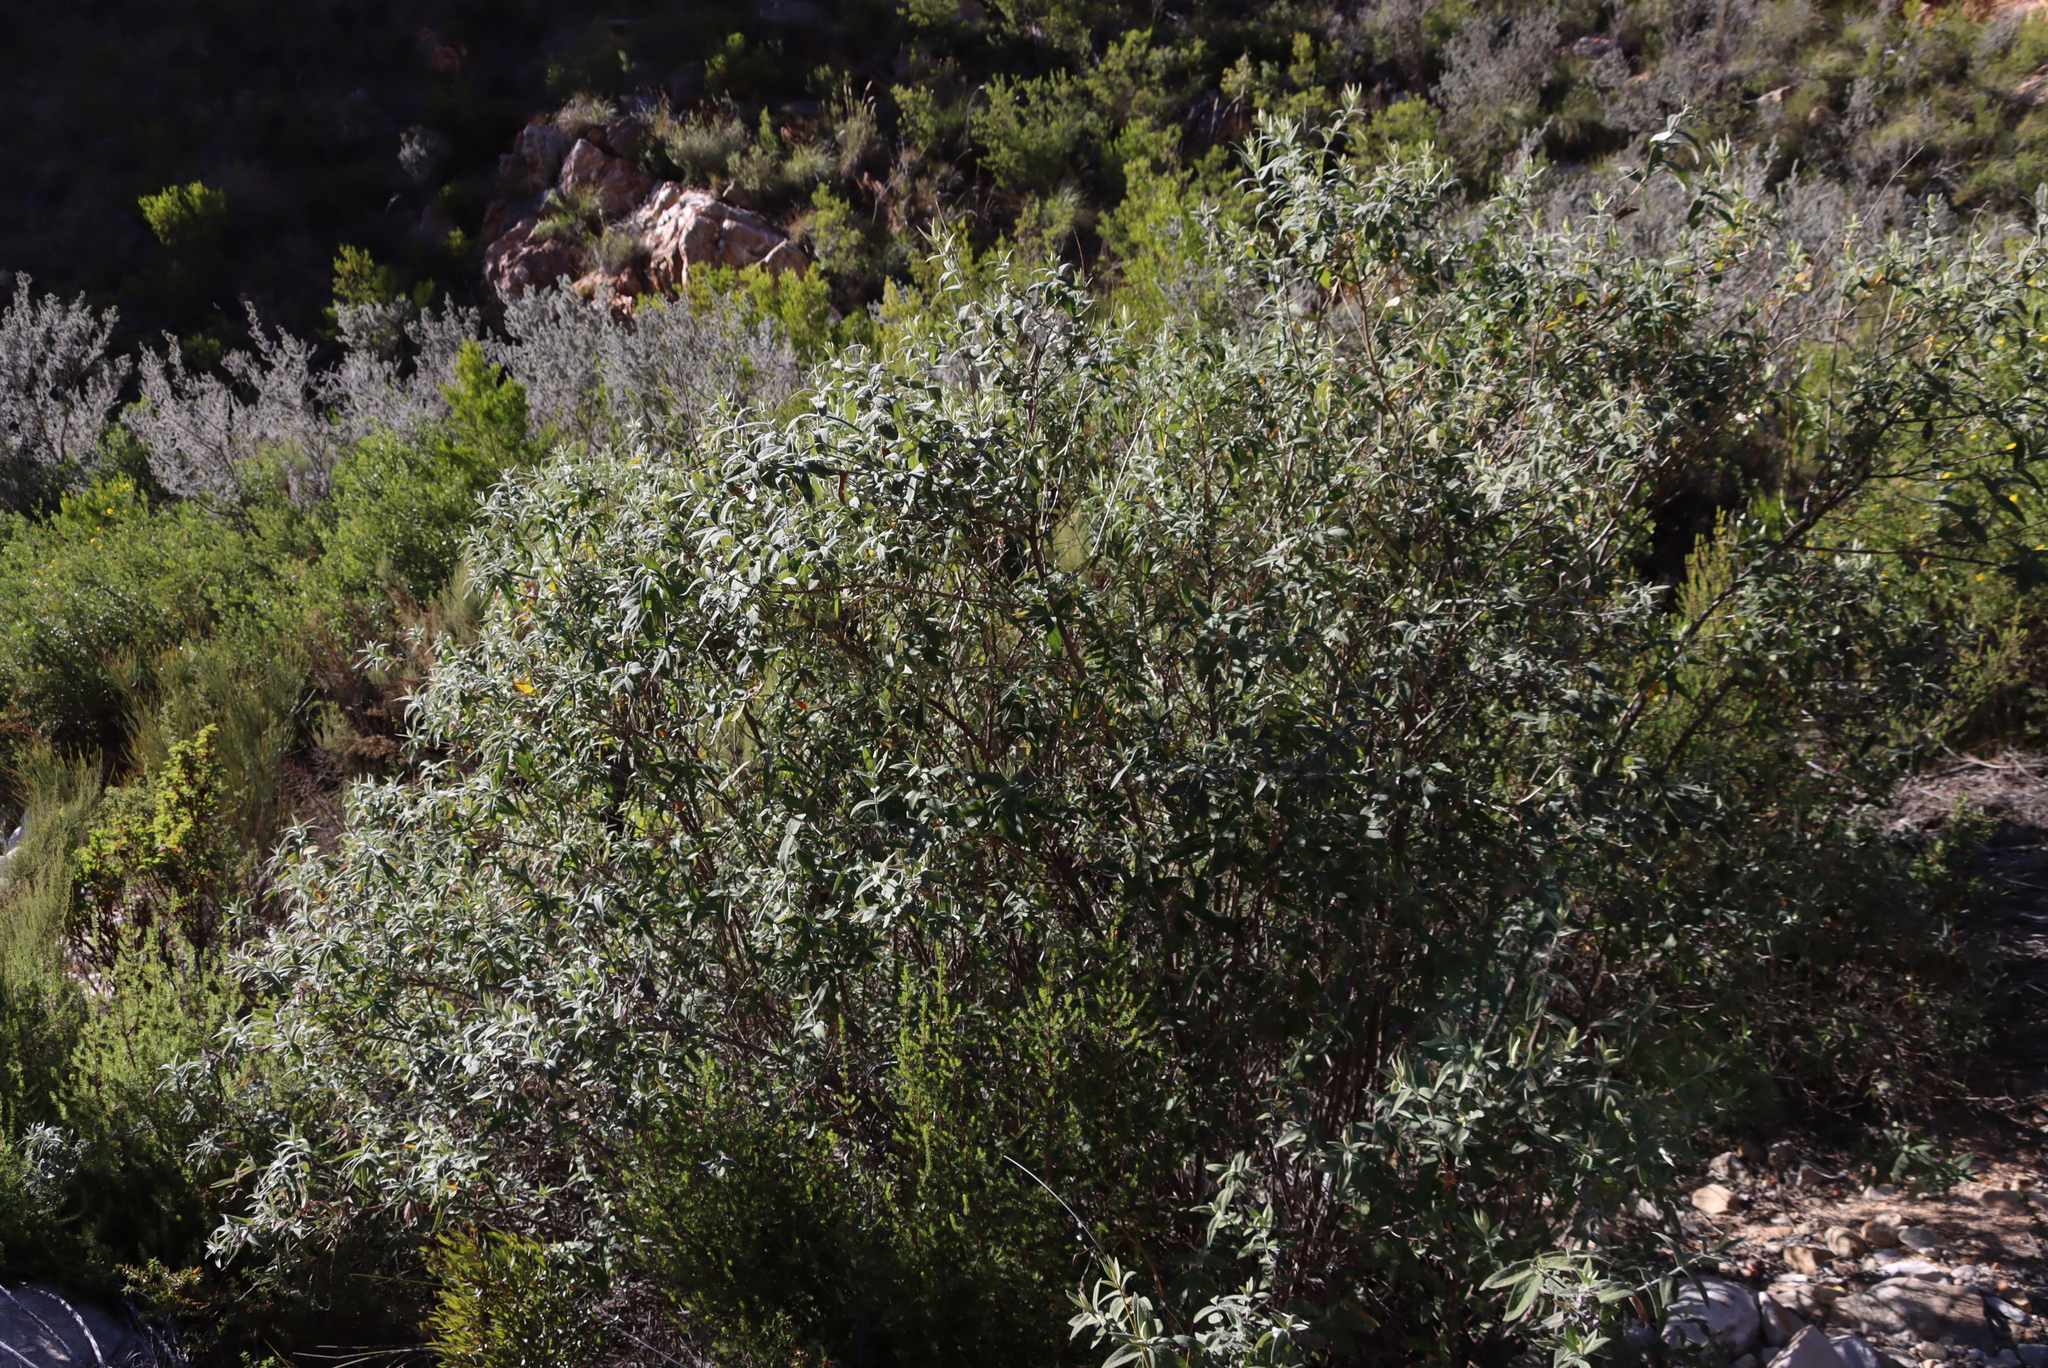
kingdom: Plantae
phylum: Tracheophyta
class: Magnoliopsida
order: Lamiales
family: Scrophulariaceae
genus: Buddleja
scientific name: Buddleja salviifolia
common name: Sagewood
